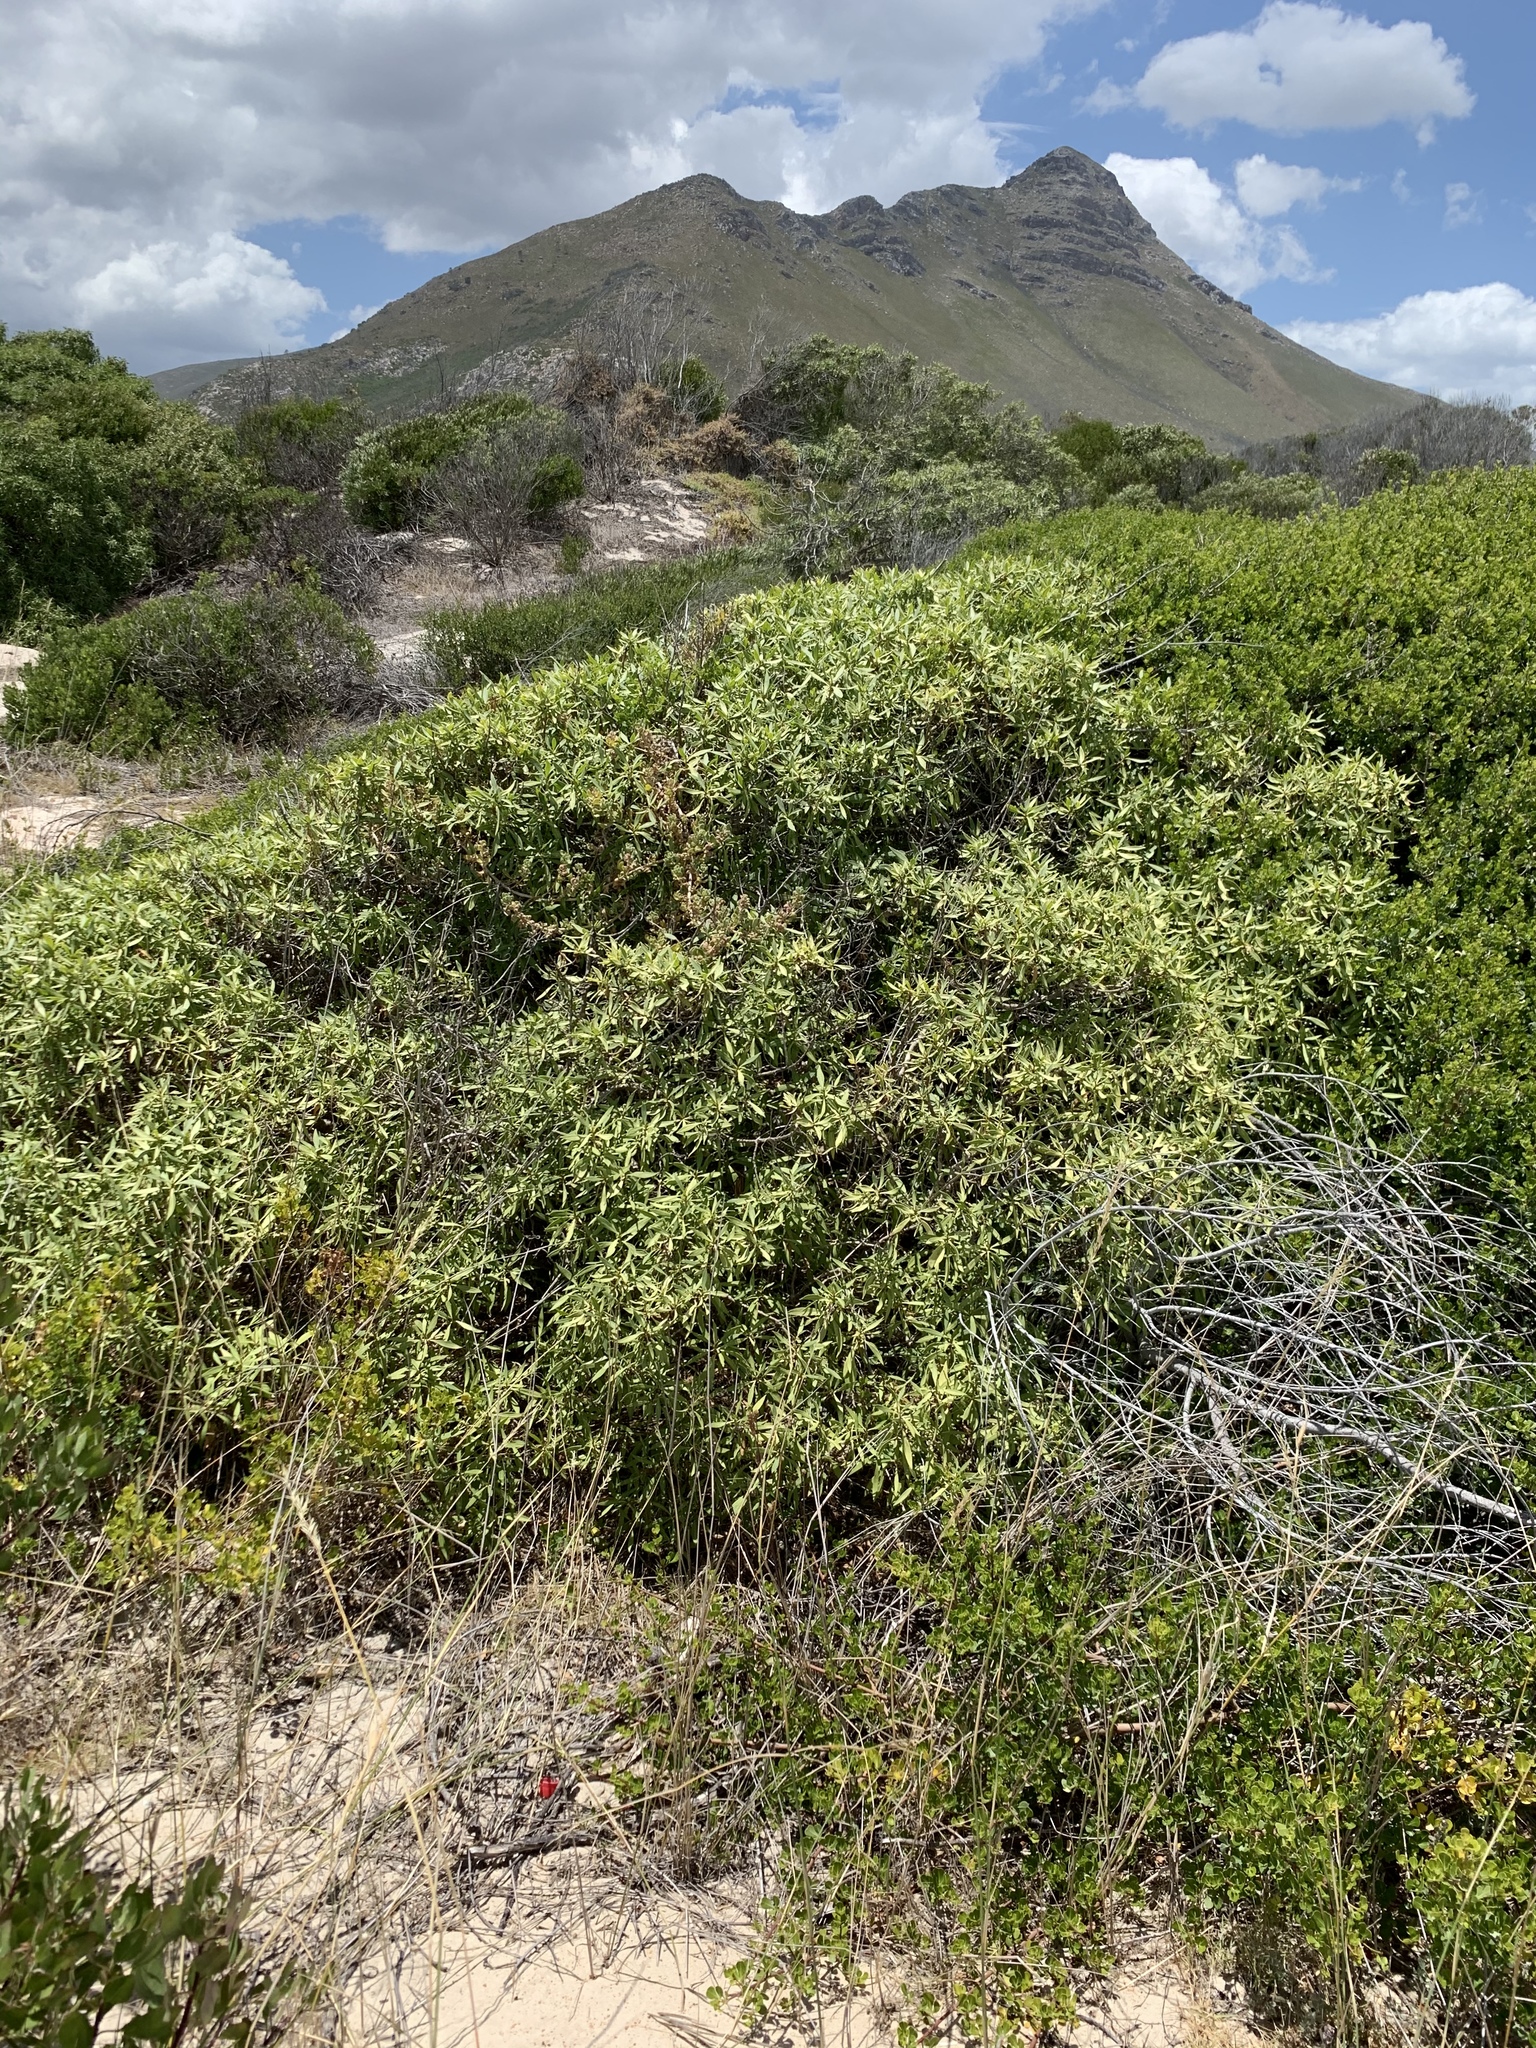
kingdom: Plantae
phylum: Tracheophyta
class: Magnoliopsida
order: Lamiales
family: Scrophulariaceae
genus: Myoporum
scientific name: Myoporum montanum
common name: Waterbush
